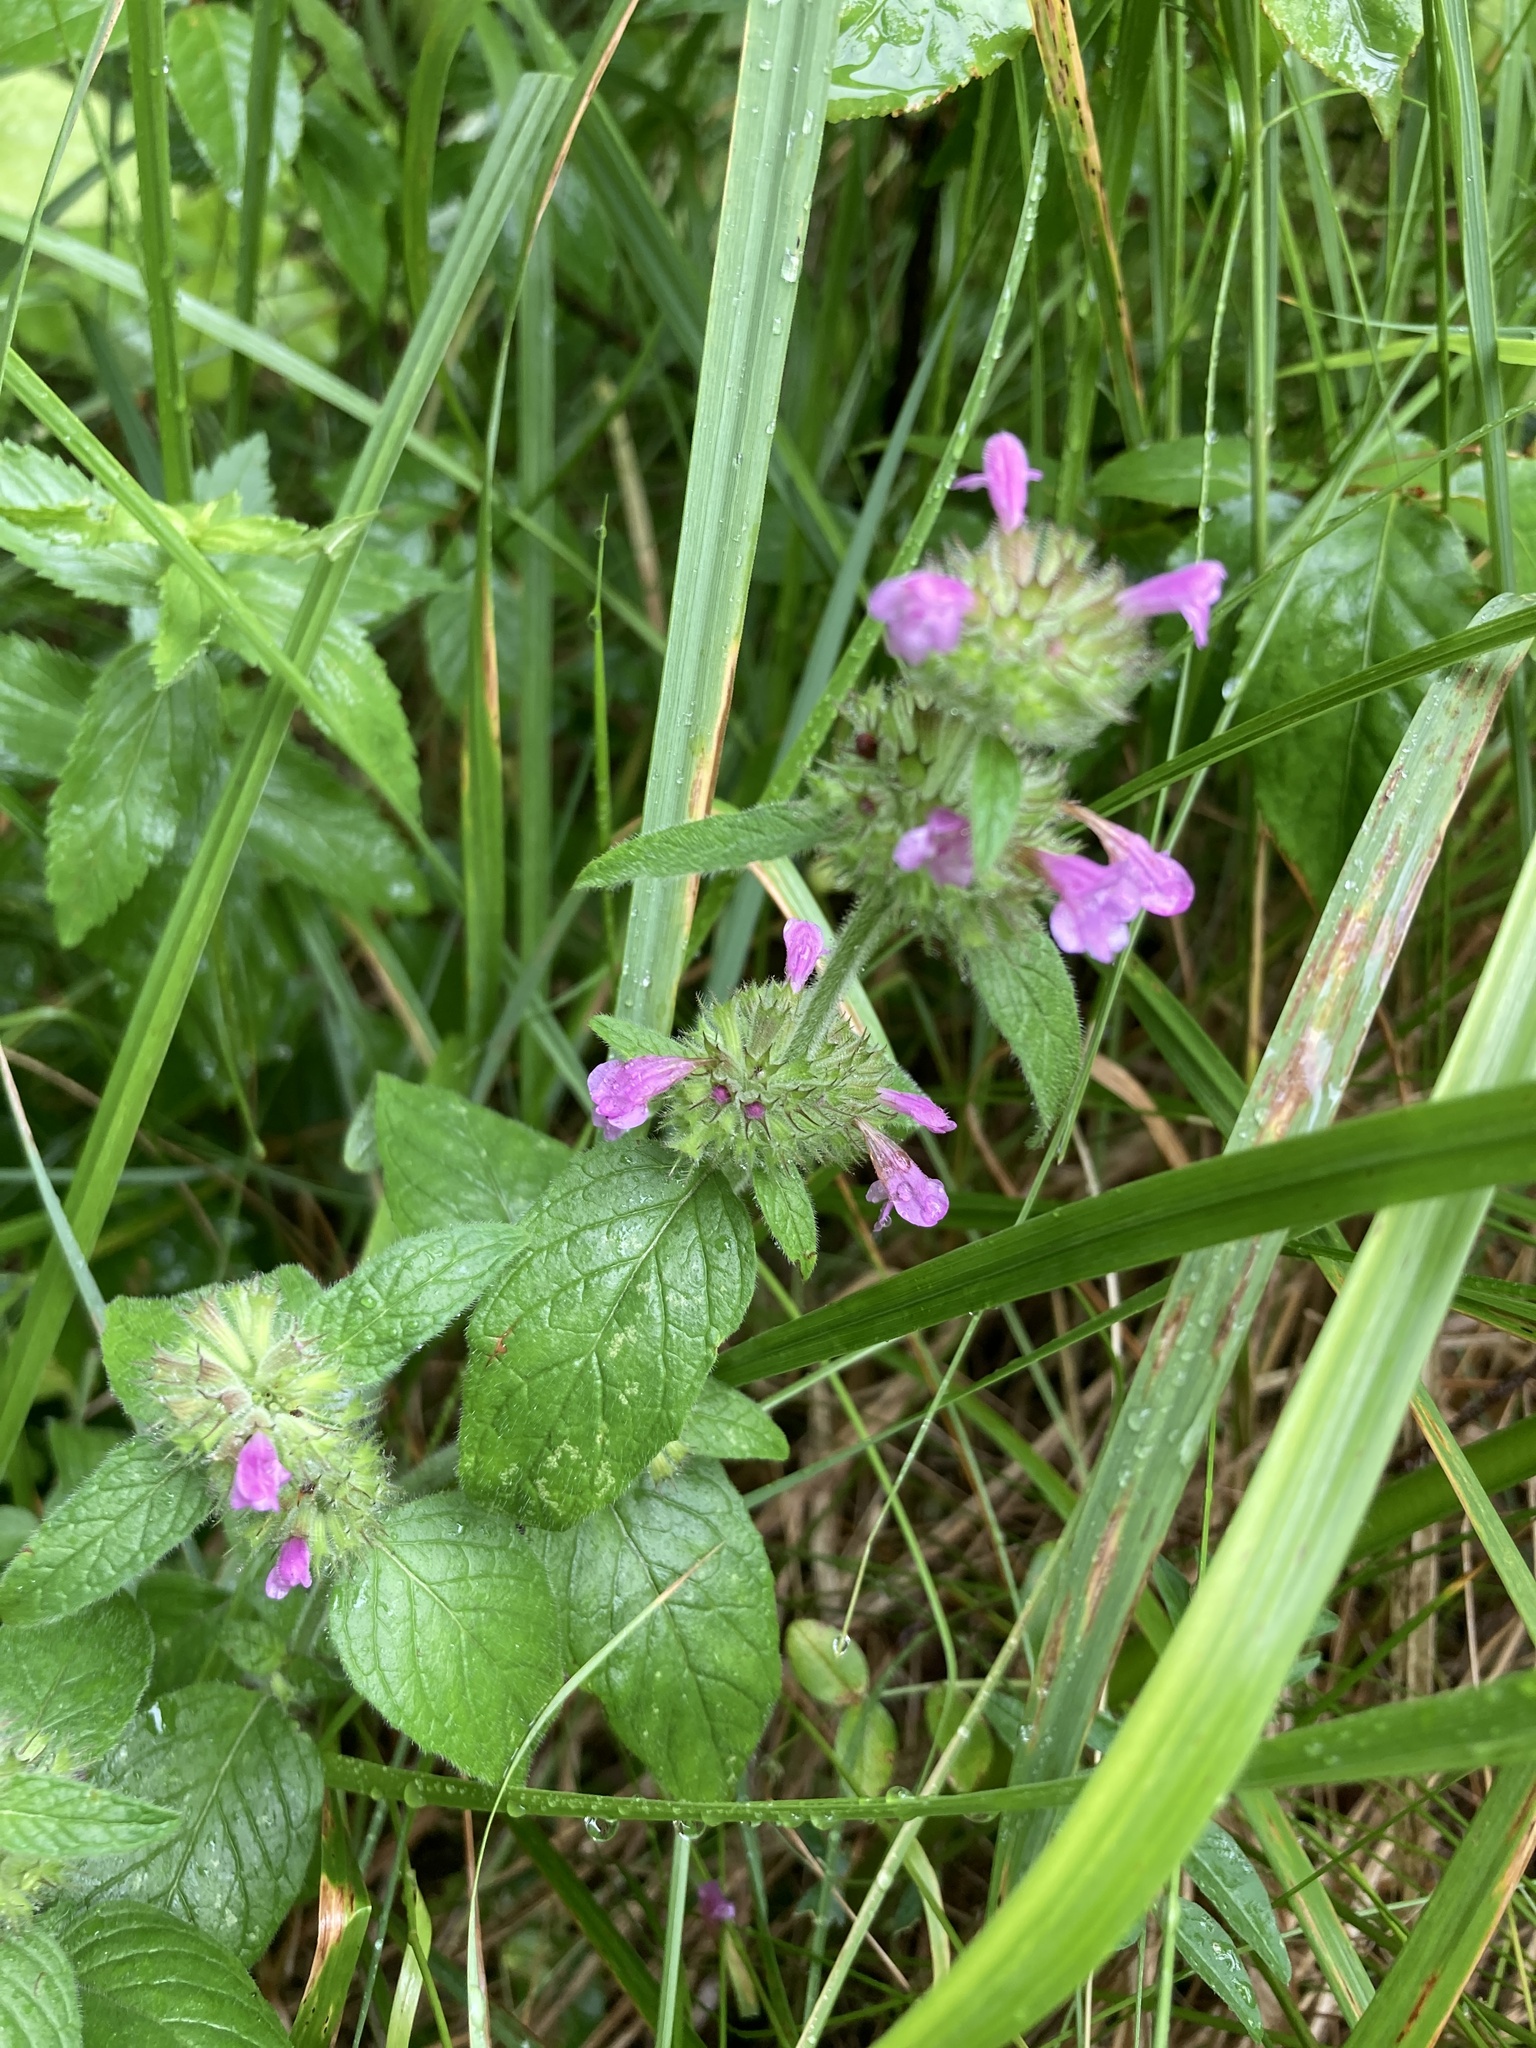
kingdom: Plantae
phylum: Tracheophyta
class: Magnoliopsida
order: Lamiales
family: Lamiaceae
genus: Clinopodium
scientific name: Clinopodium vulgare
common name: Wild basil
